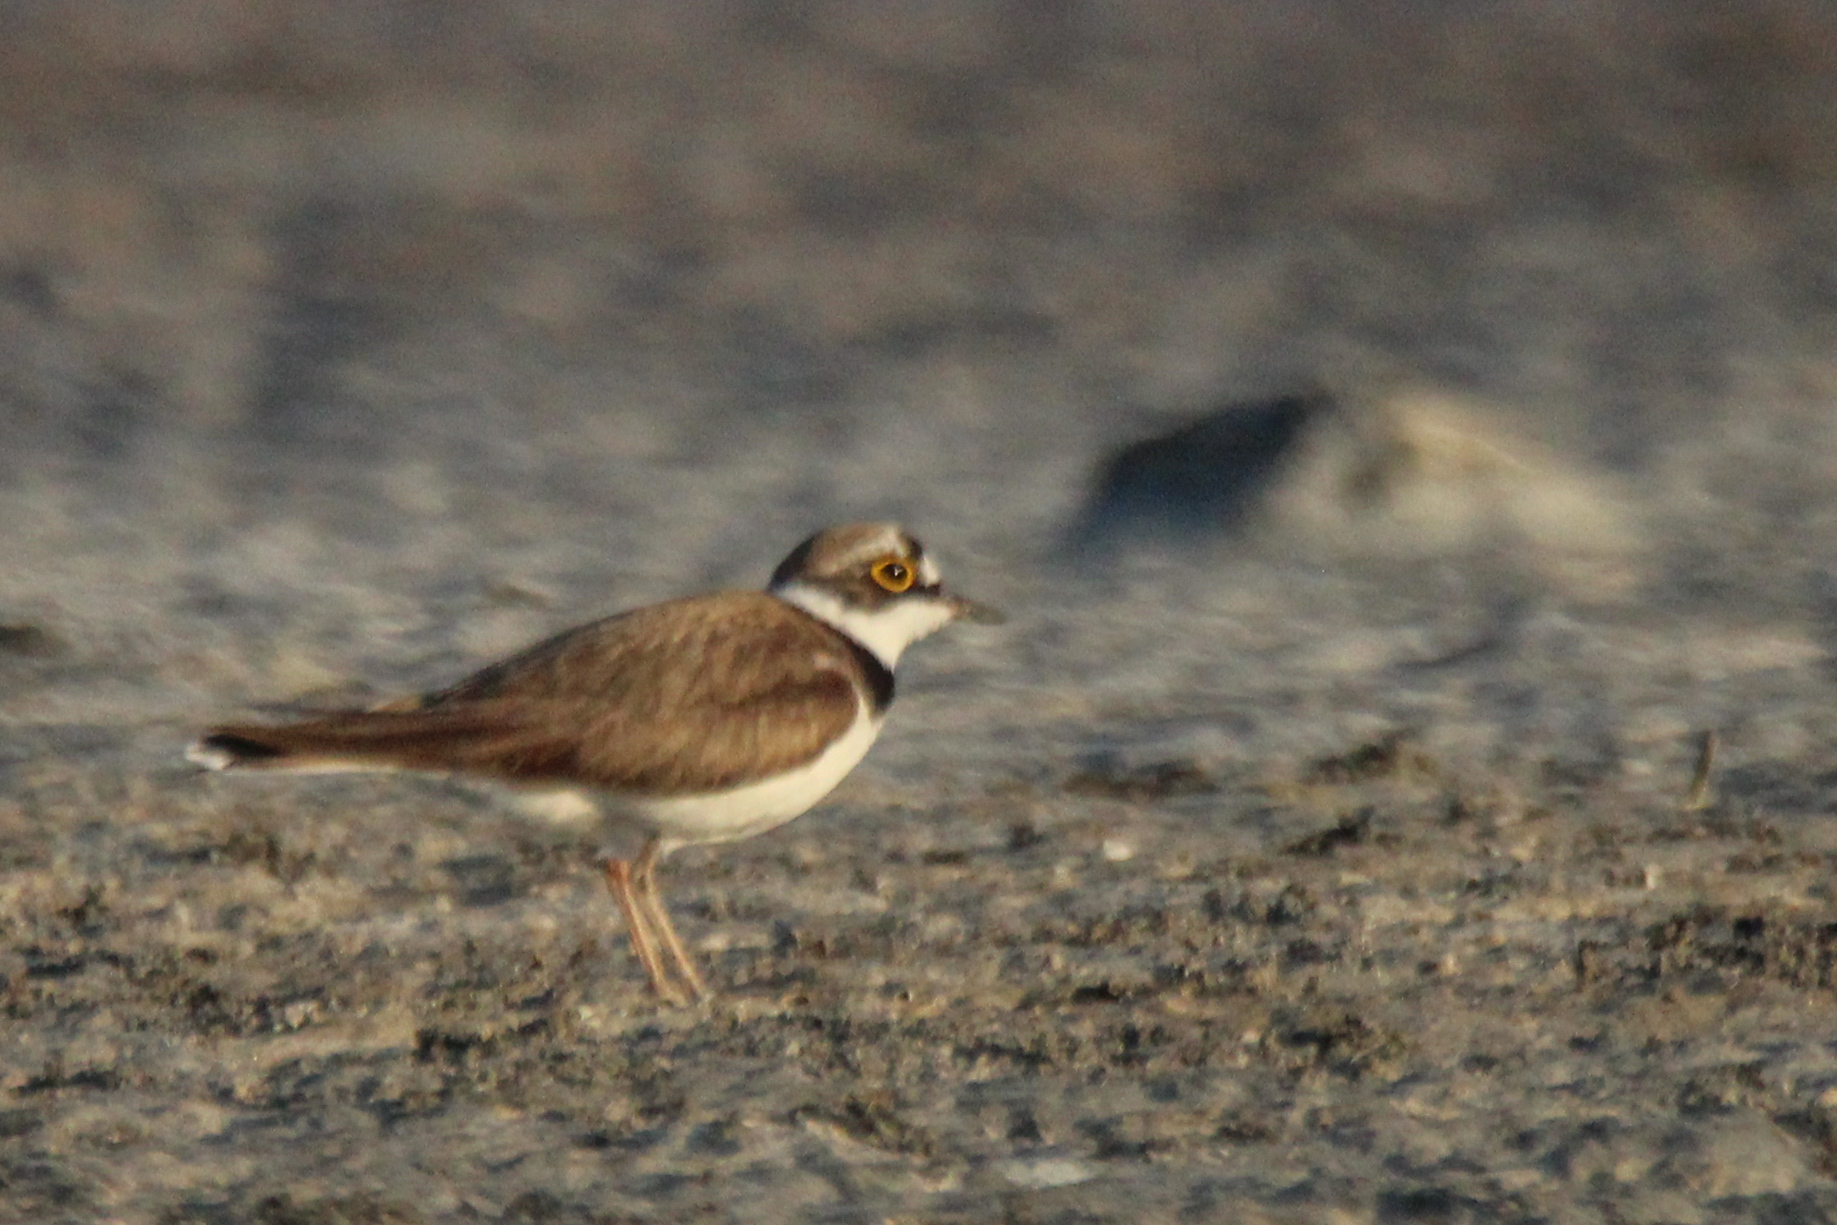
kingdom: Animalia
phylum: Chordata
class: Aves
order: Charadriiformes
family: Charadriidae
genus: Charadrius
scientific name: Charadrius dubius
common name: Little ringed plover
